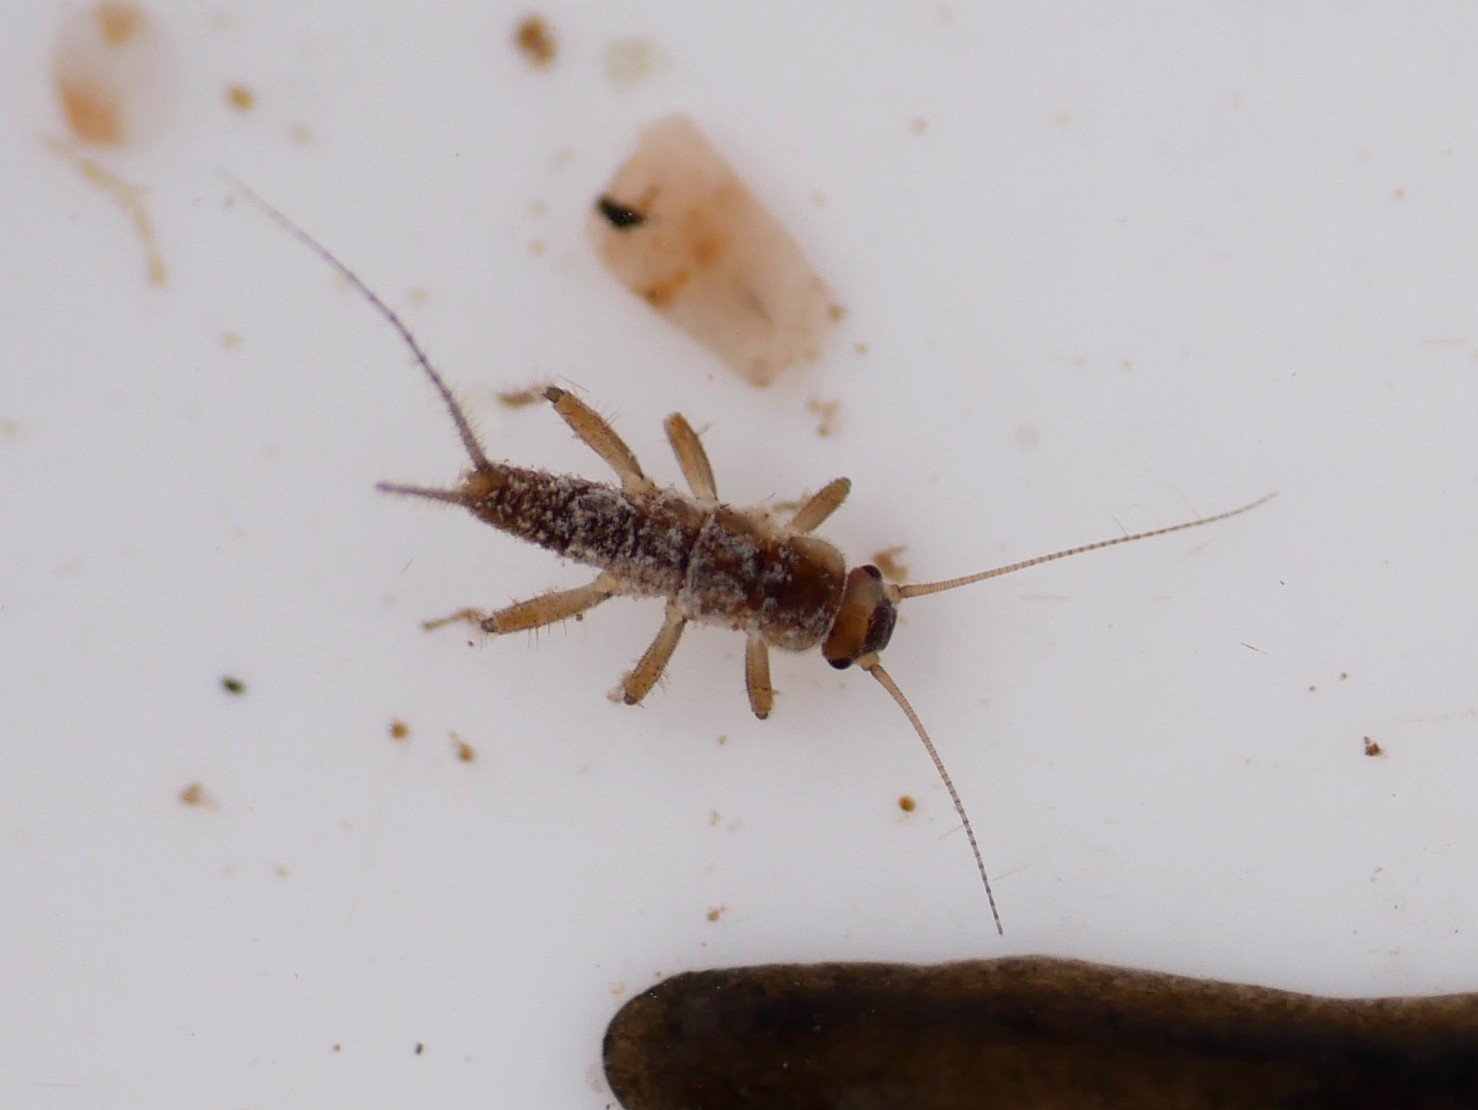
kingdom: Animalia
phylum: Arthropoda
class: Insecta
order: Plecoptera
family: Nemouridae
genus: Nemurella
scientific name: Nemurella pictetii
